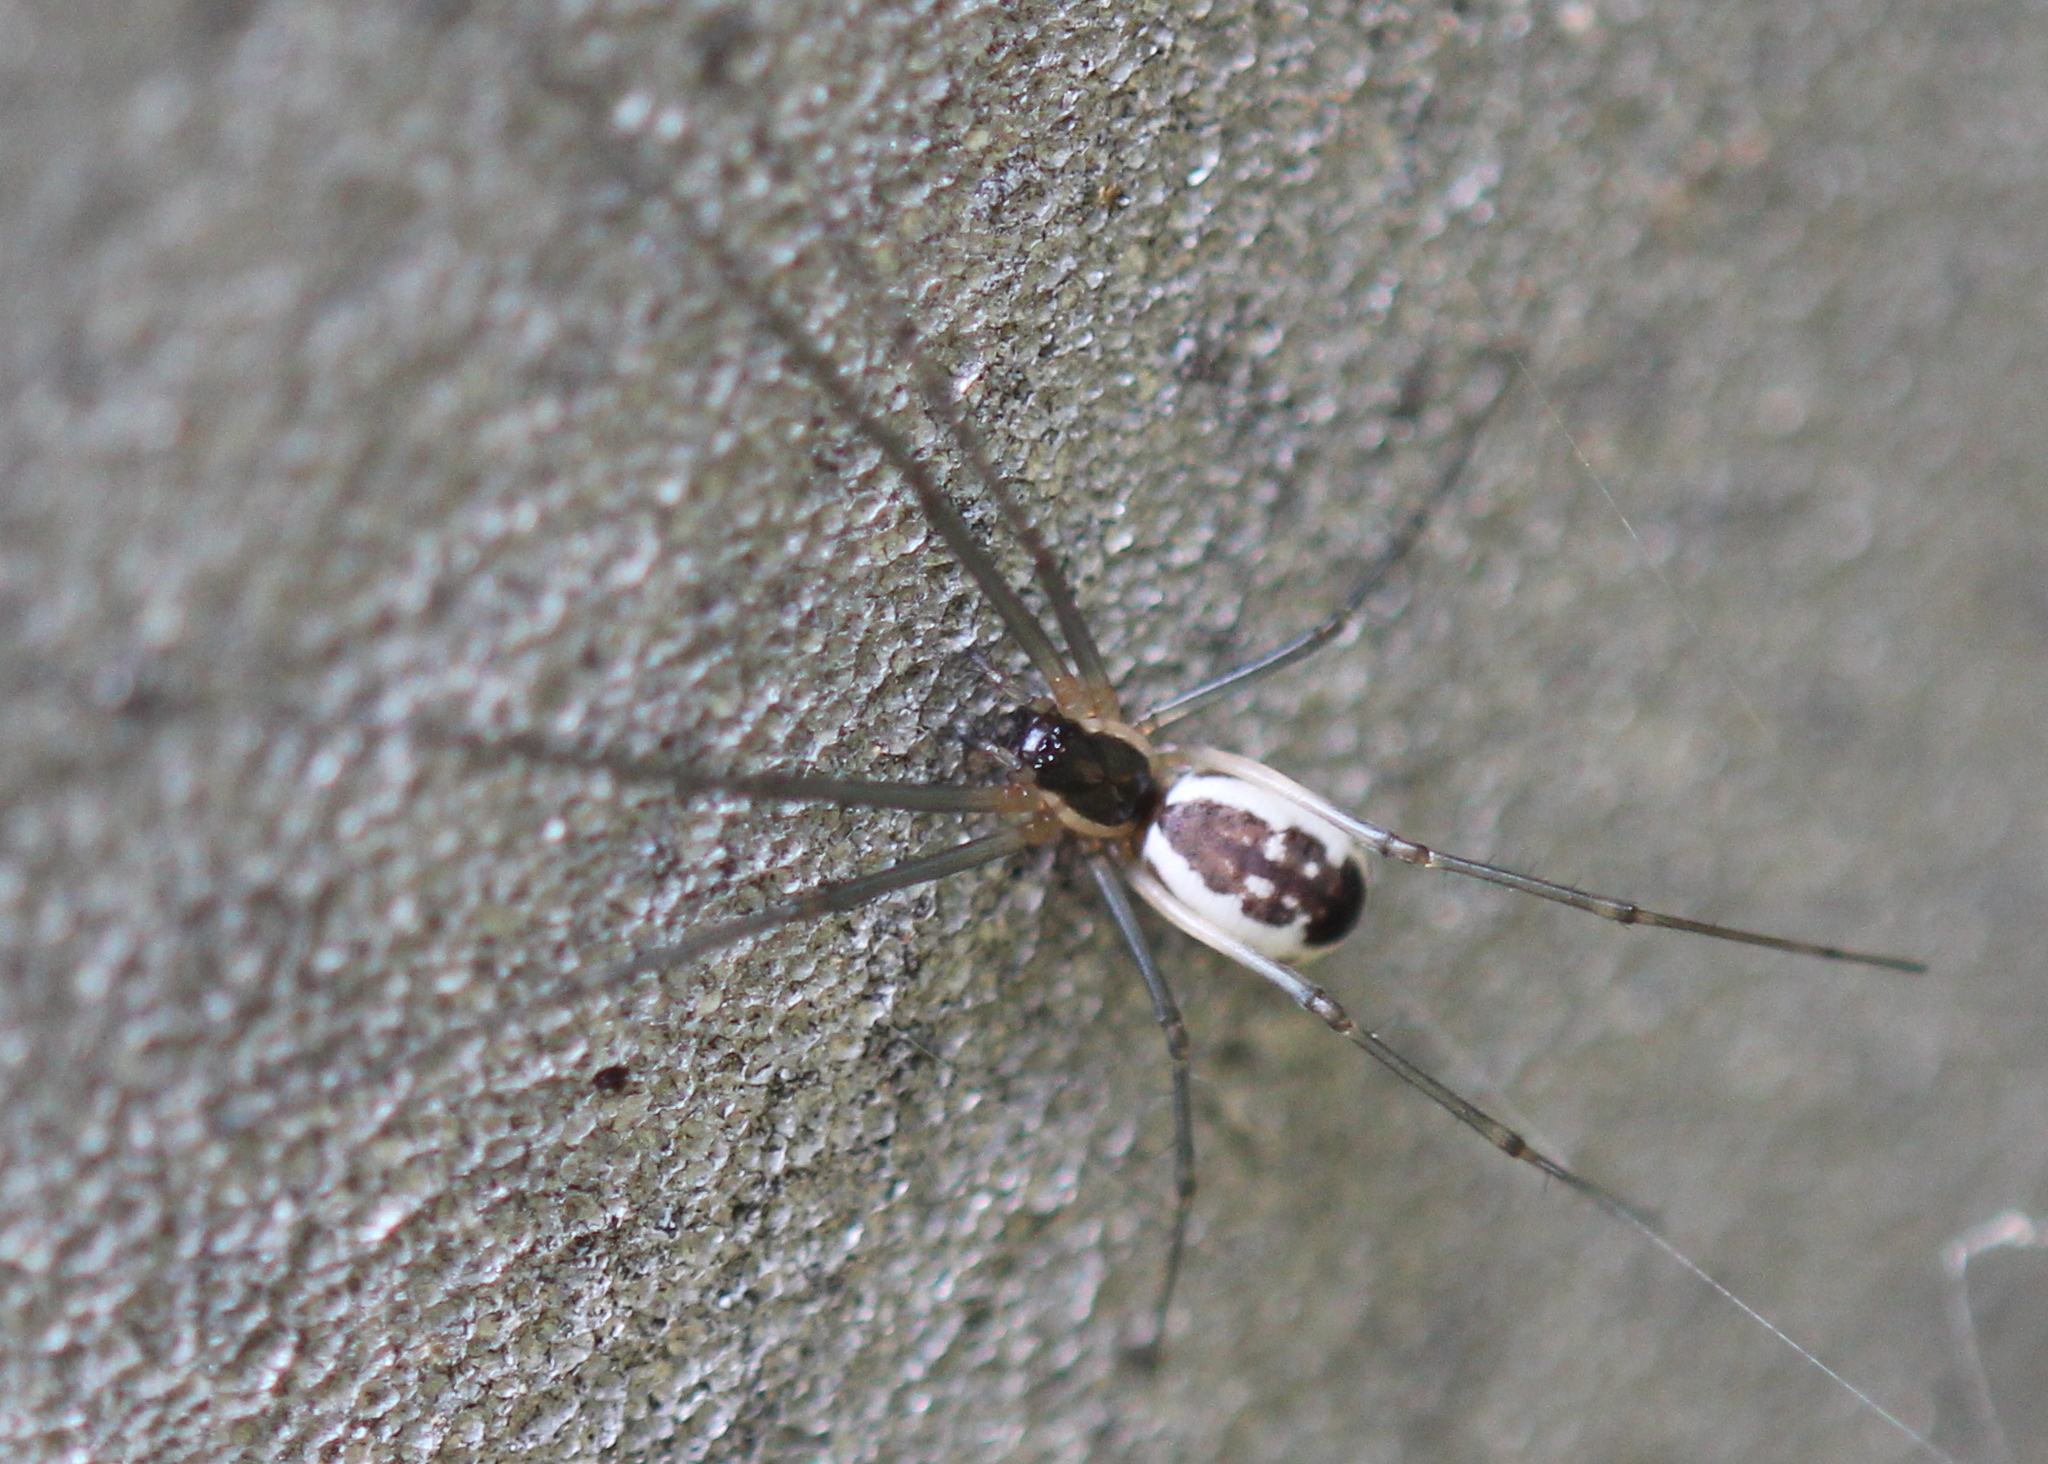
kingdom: Animalia
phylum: Arthropoda
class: Arachnida
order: Araneae
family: Linyphiidae
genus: Neriene
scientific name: Neriene radiata
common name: Filmy dome spider
